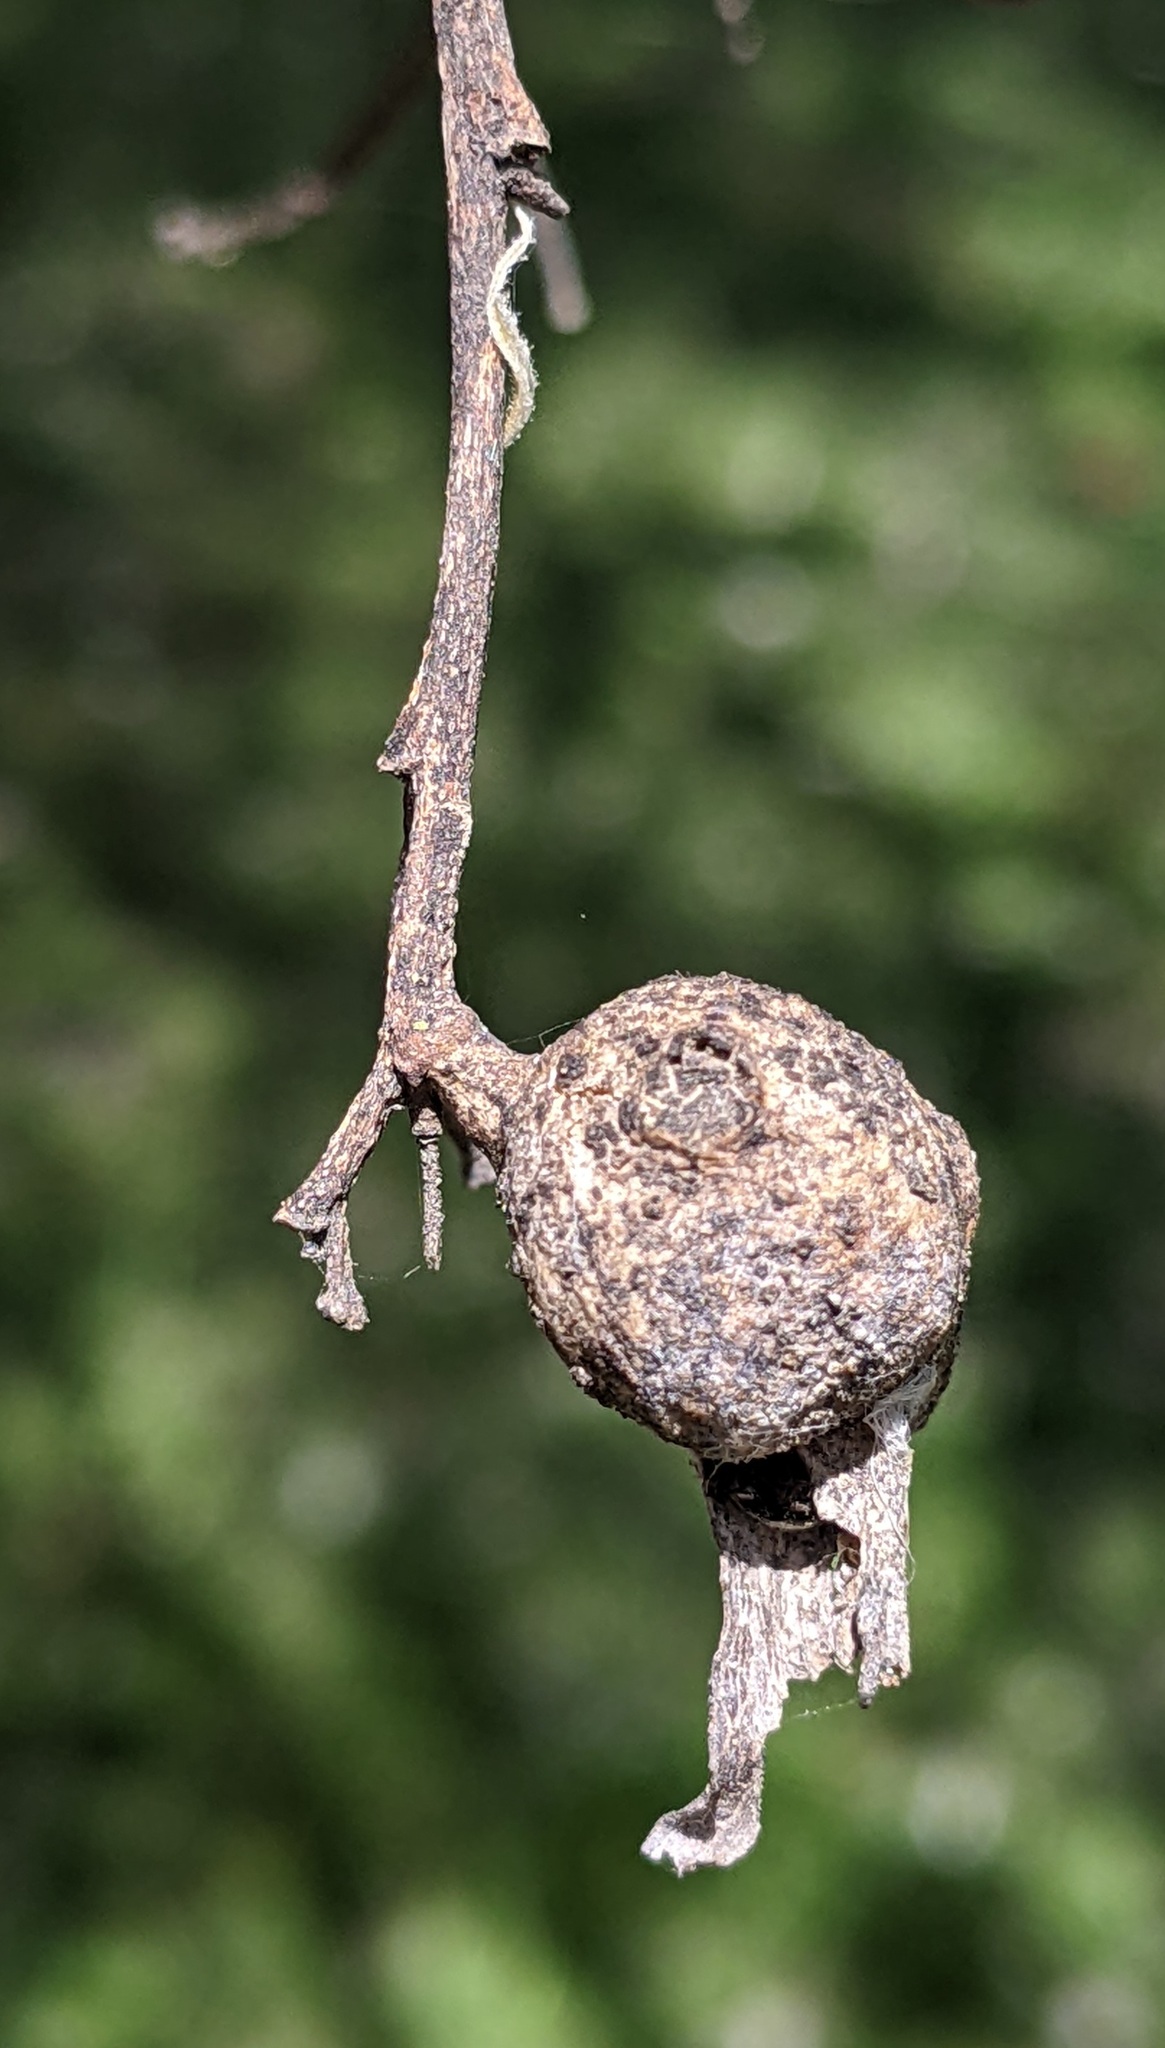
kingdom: Animalia
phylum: Arthropoda
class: Insecta
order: Hemiptera
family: Aphalaridae
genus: Pachypsylla
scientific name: Pachypsylla venusta
